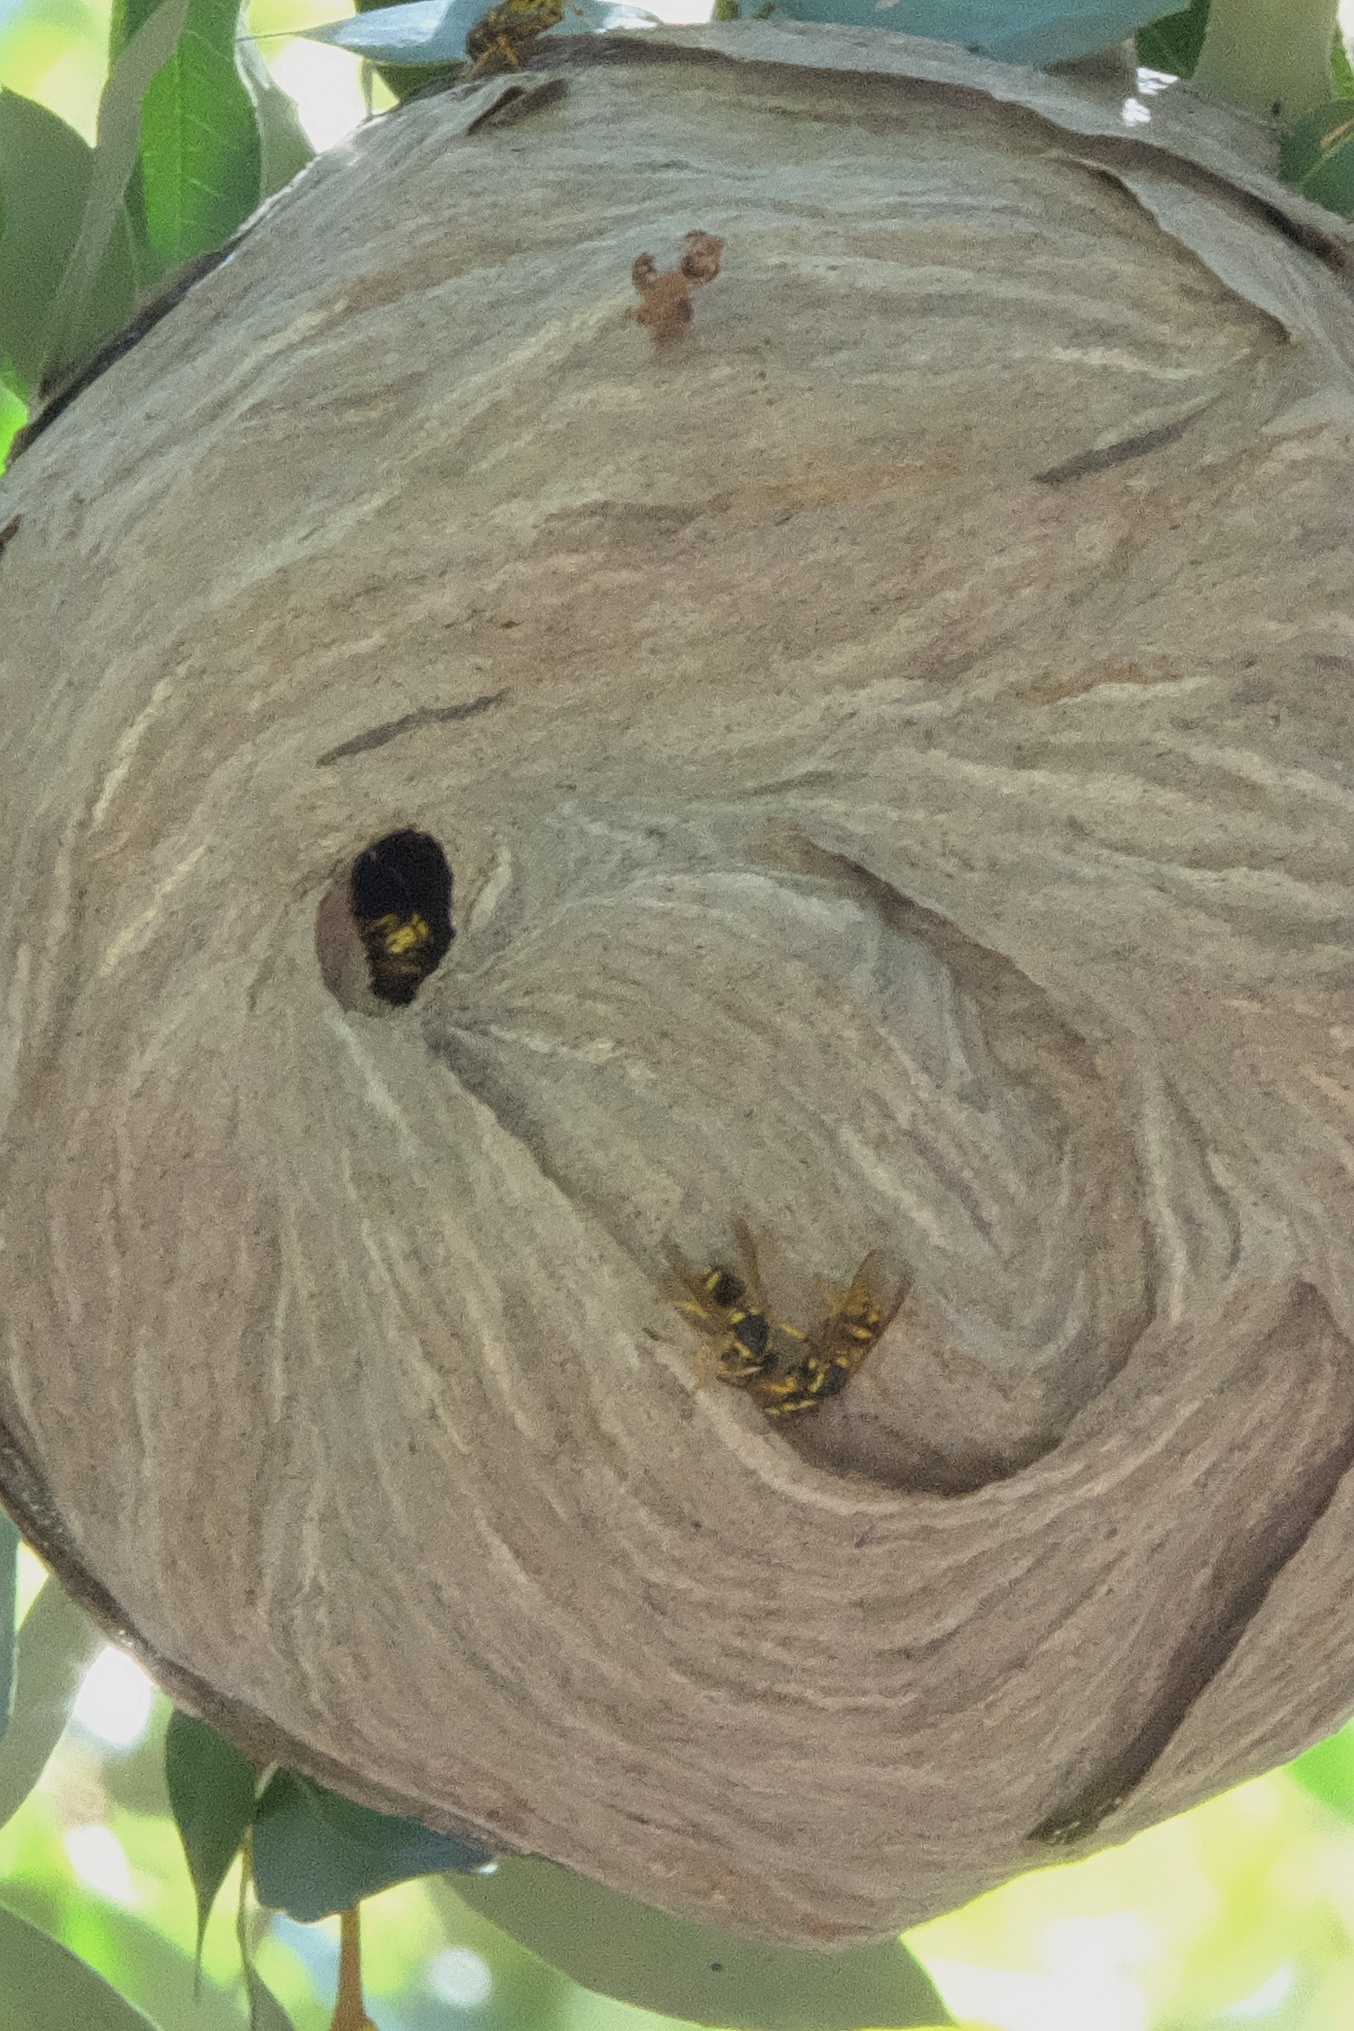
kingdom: Animalia
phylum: Arthropoda
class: Insecta
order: Hymenoptera
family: Vespidae
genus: Dolichovespula
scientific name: Dolichovespula arenaria
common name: Aerial yellowjacket
